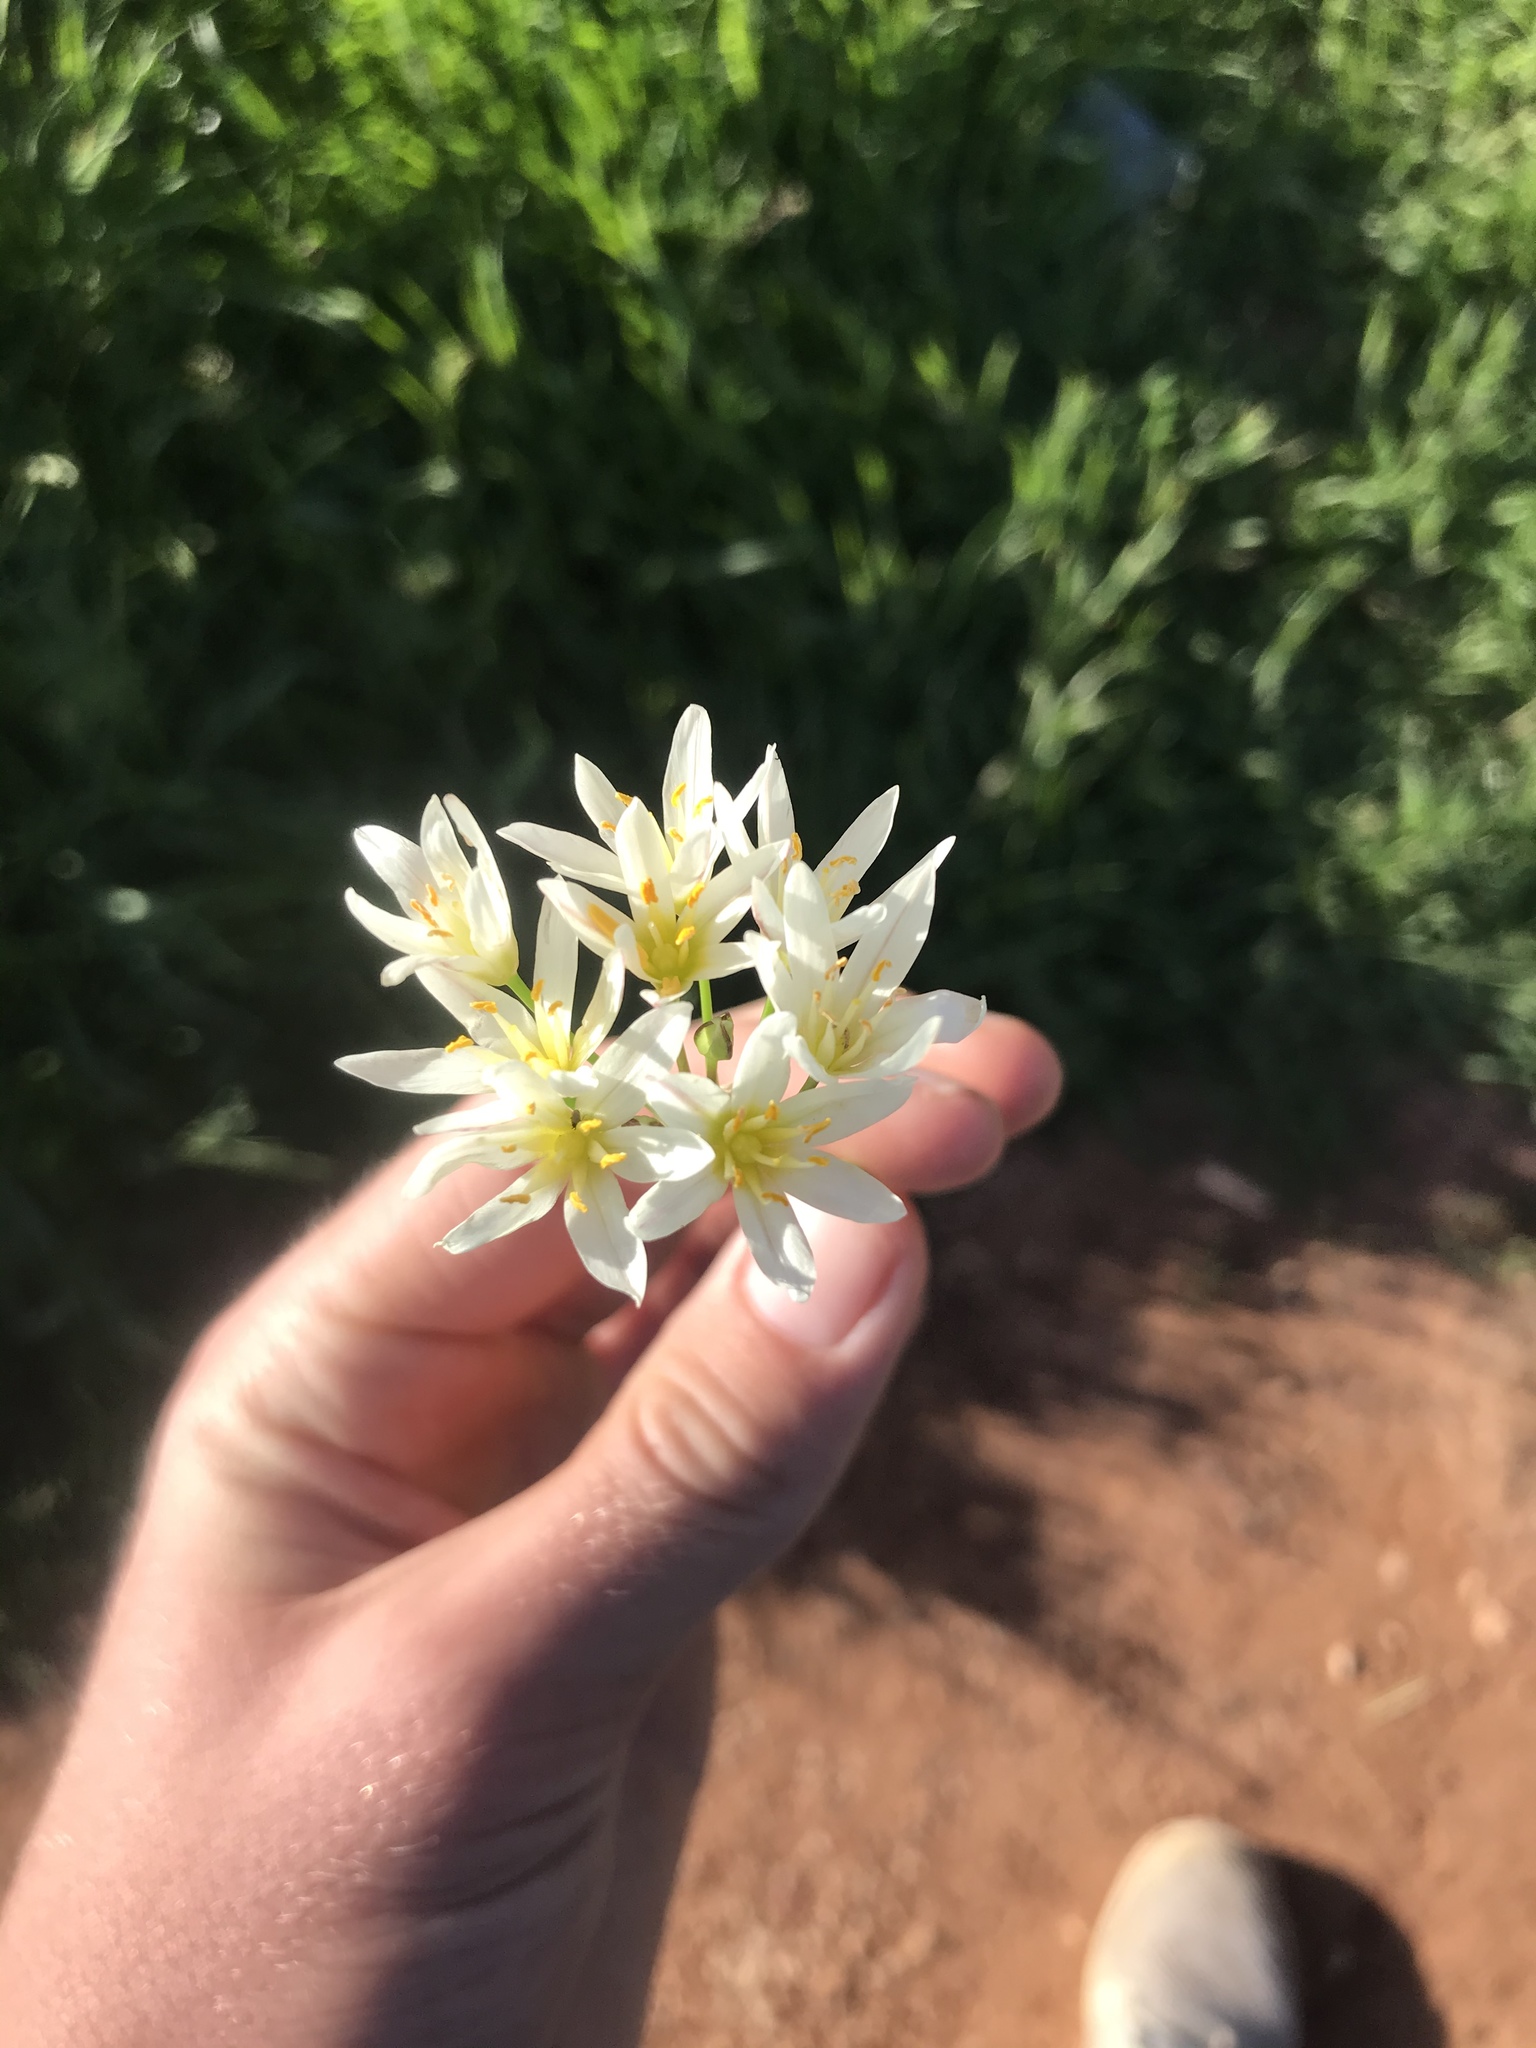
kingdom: Plantae
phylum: Tracheophyta
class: Liliopsida
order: Asparagales
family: Amaryllidaceae
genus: Nothoscordum
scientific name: Nothoscordum bivalve
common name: Crow-poison
